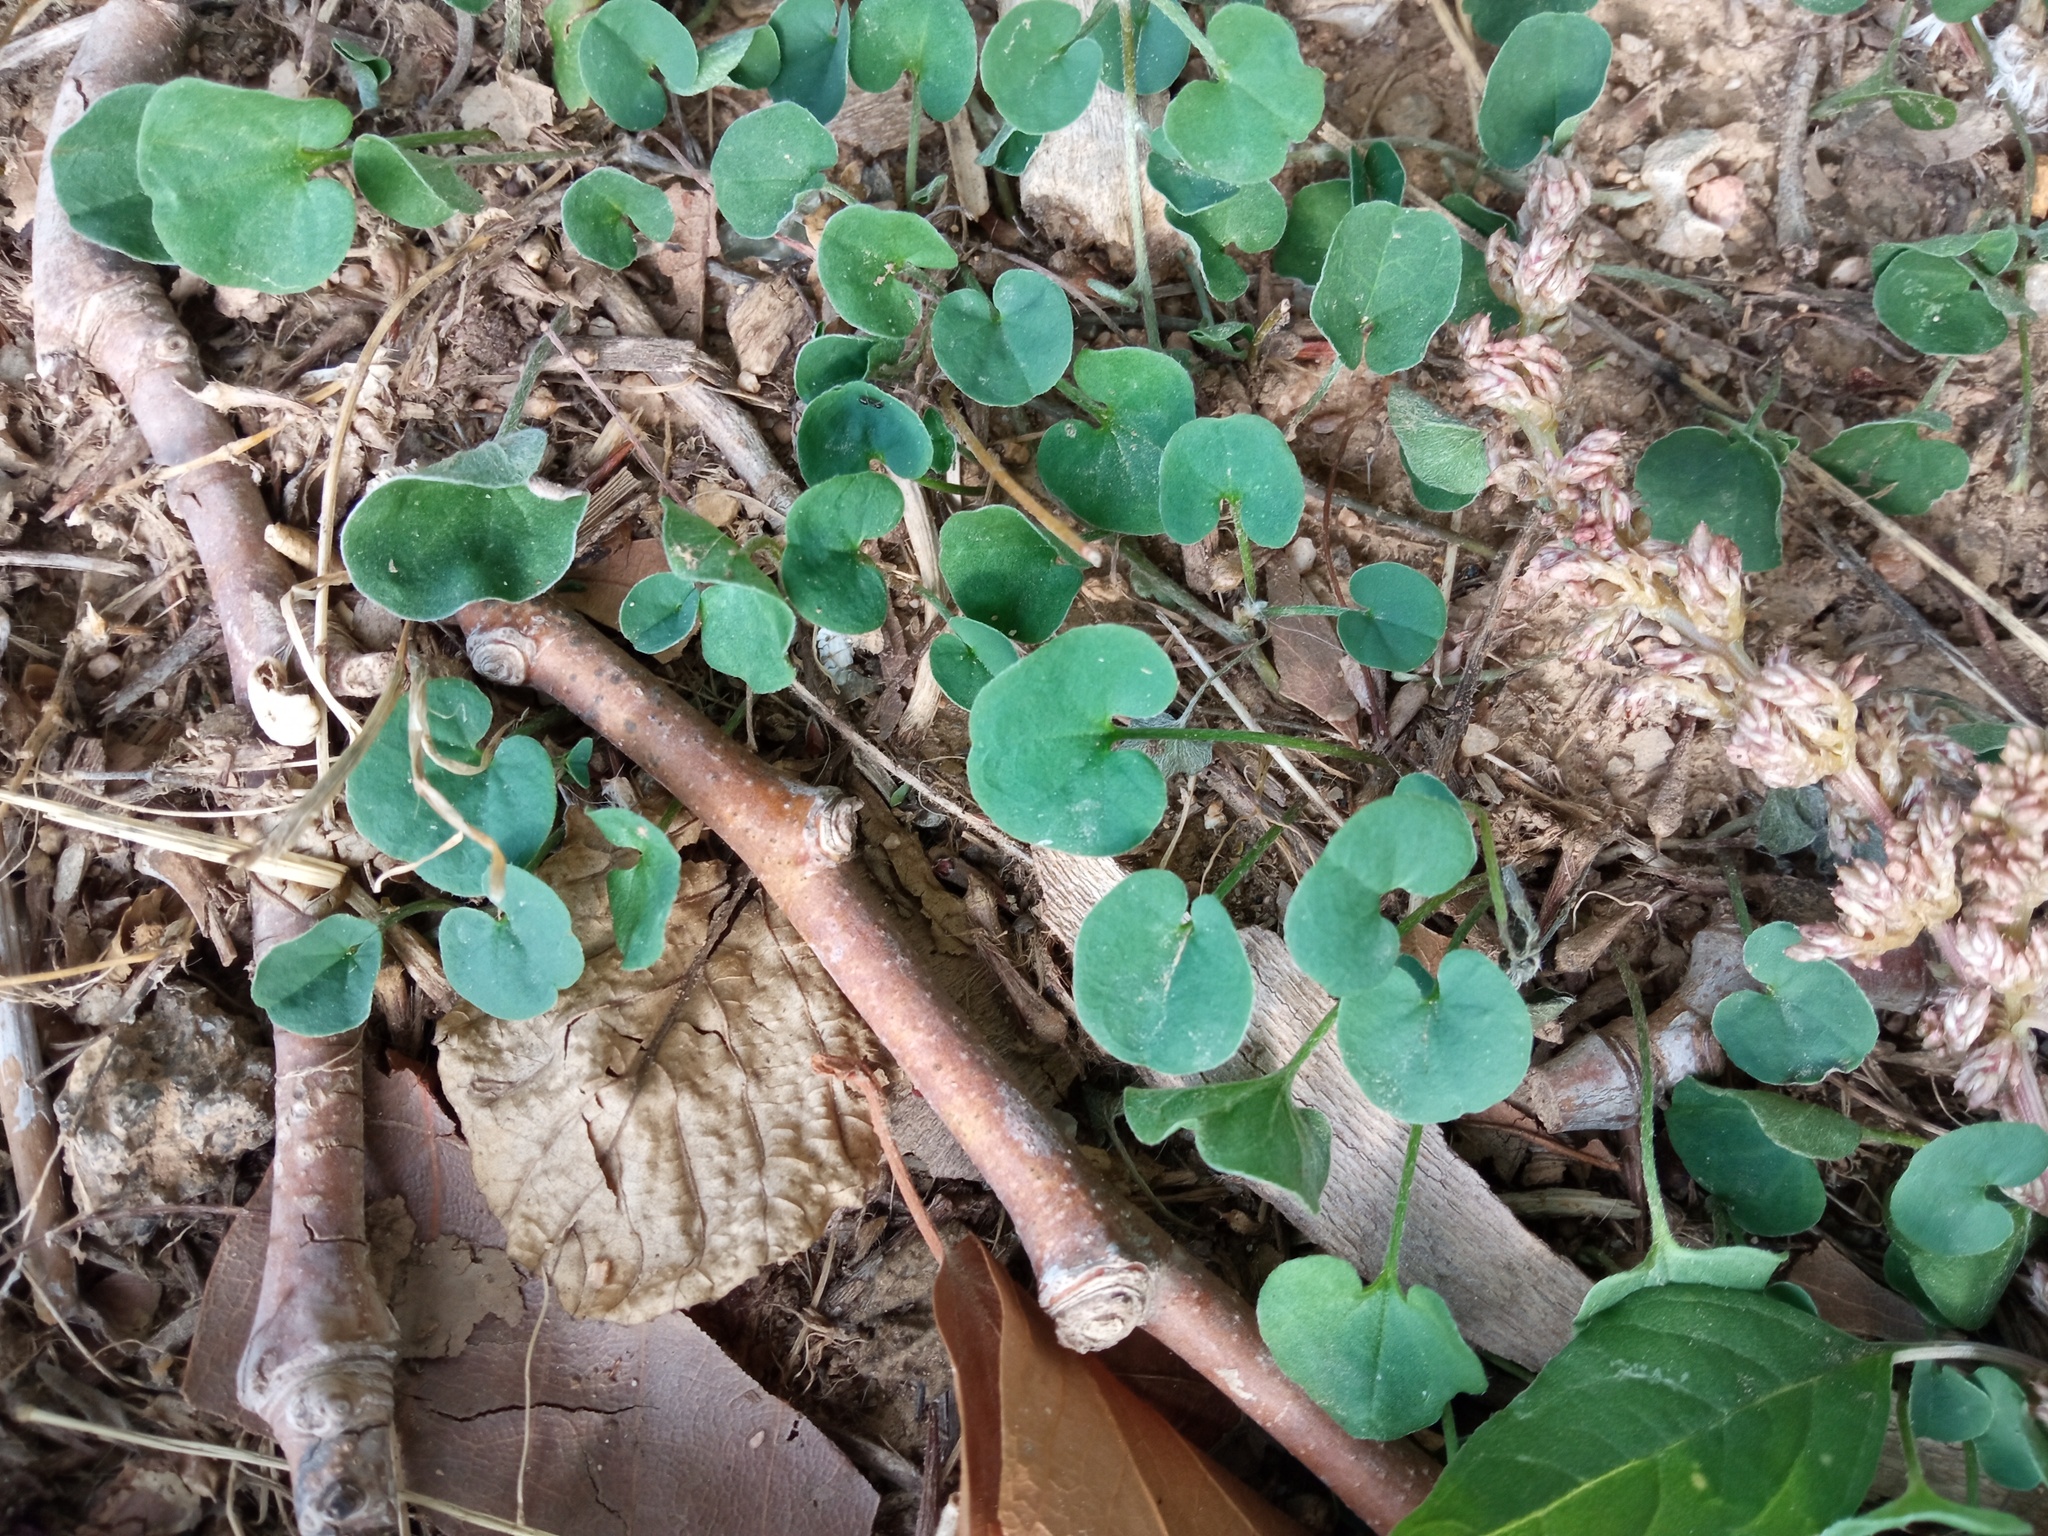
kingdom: Plantae
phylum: Tracheophyta
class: Magnoliopsida
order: Solanales
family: Convolvulaceae
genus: Dichondra
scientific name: Dichondra micrantha
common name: Kidneyweed
